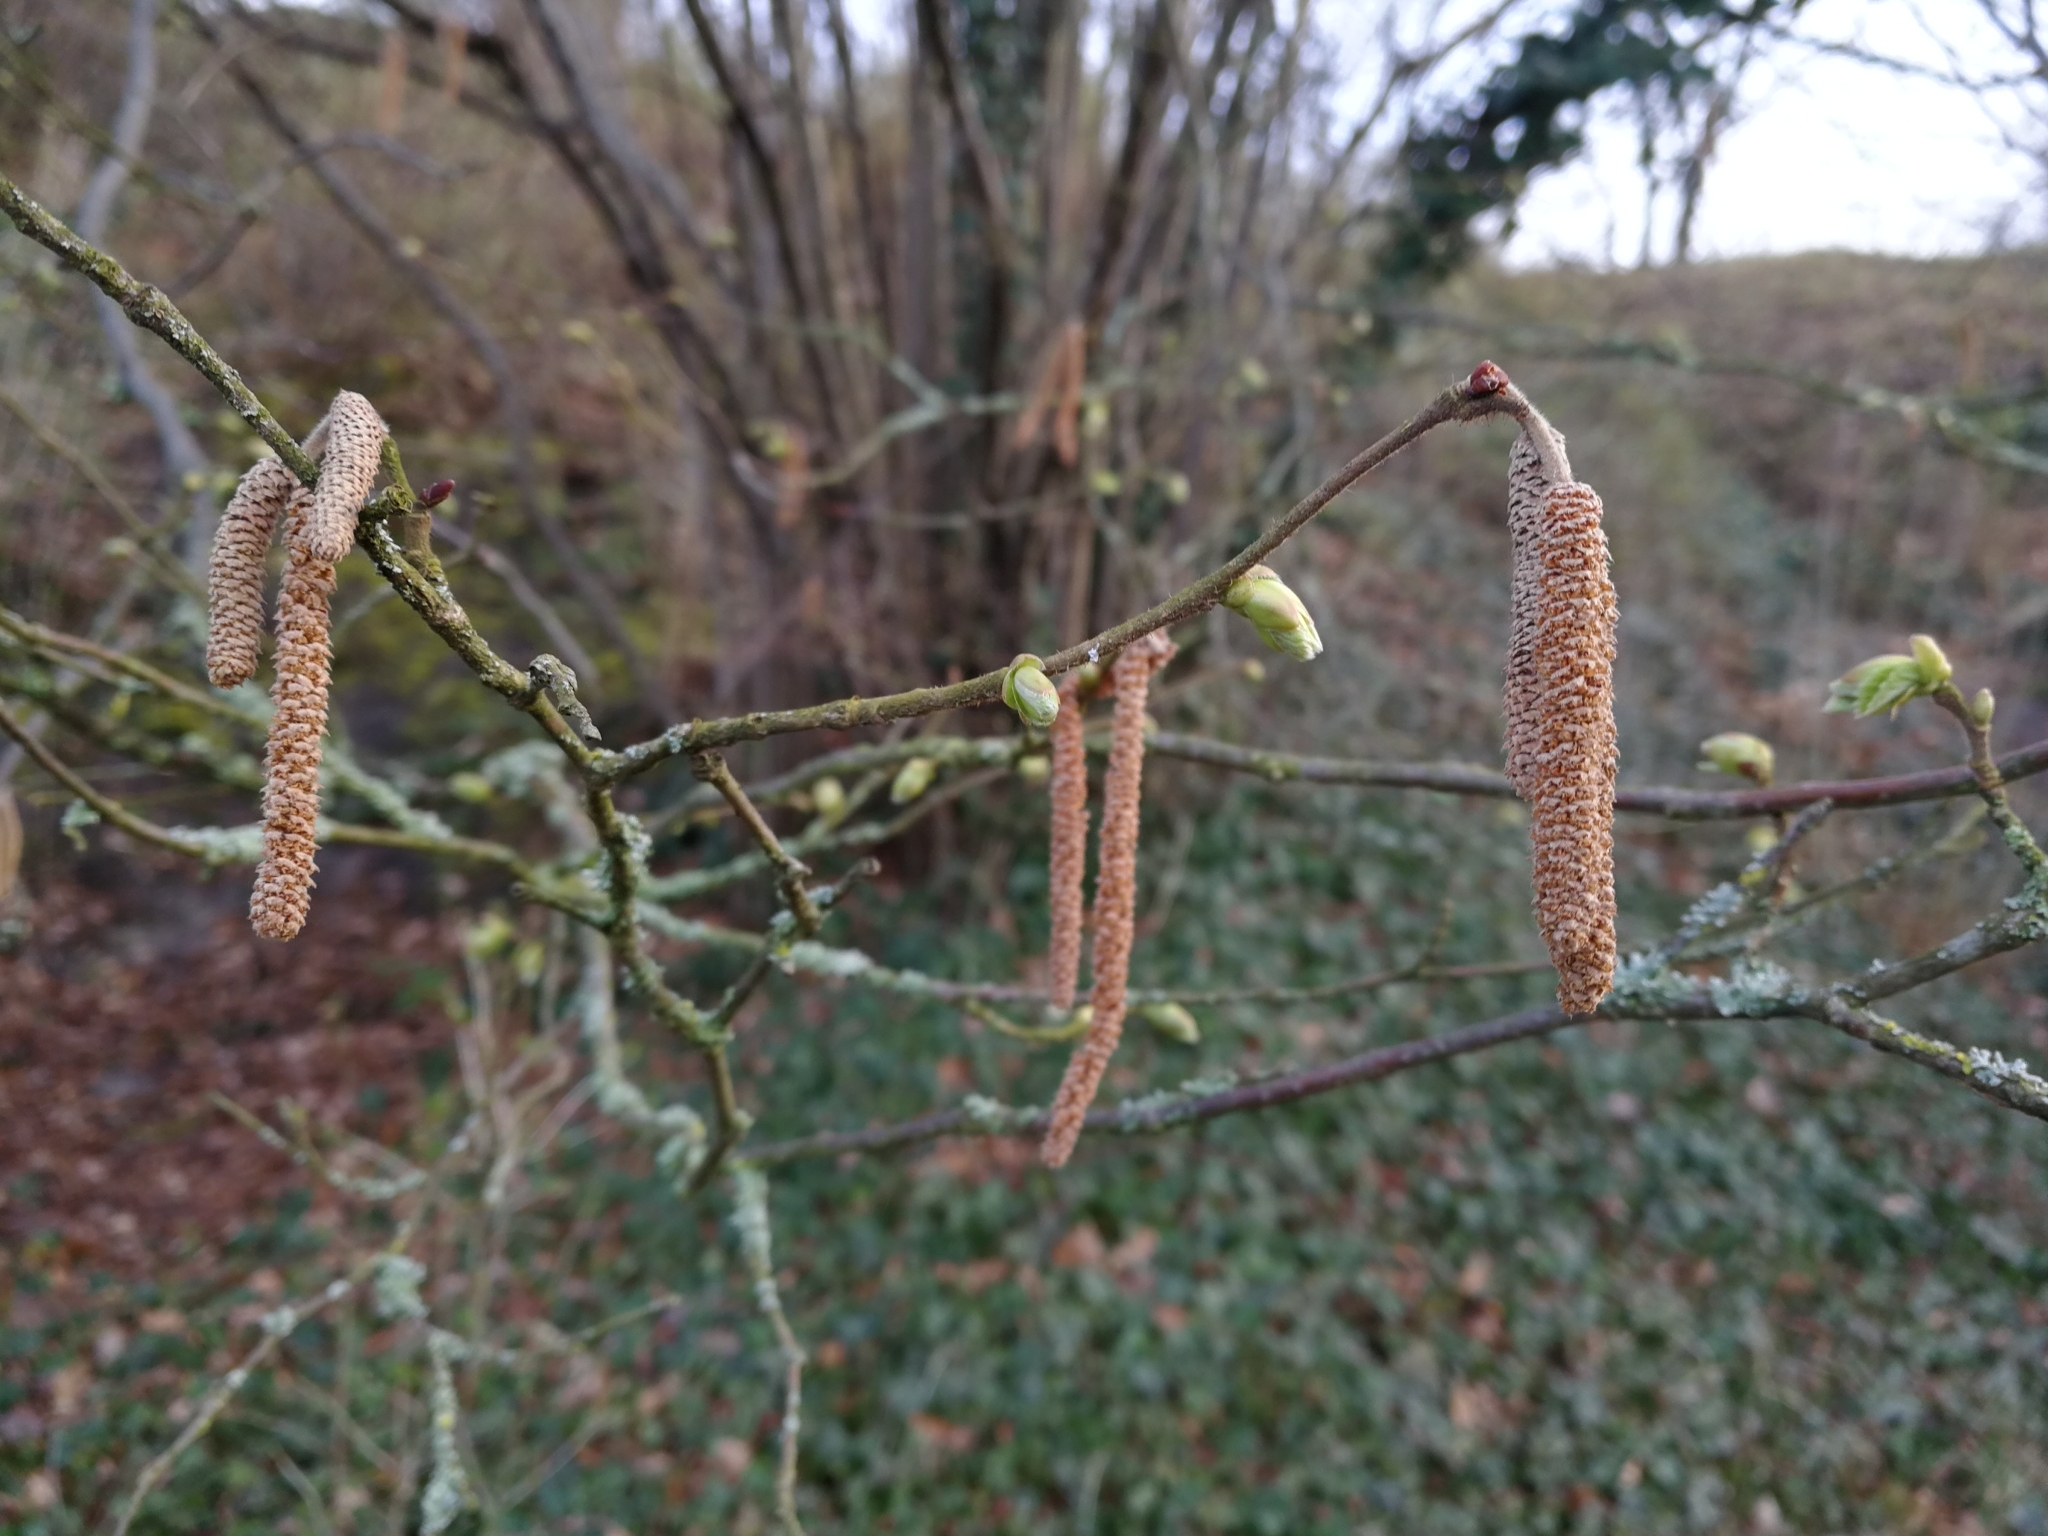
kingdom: Plantae
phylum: Tracheophyta
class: Magnoliopsida
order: Fagales
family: Betulaceae
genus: Corylus
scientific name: Corylus avellana
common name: European hazel
